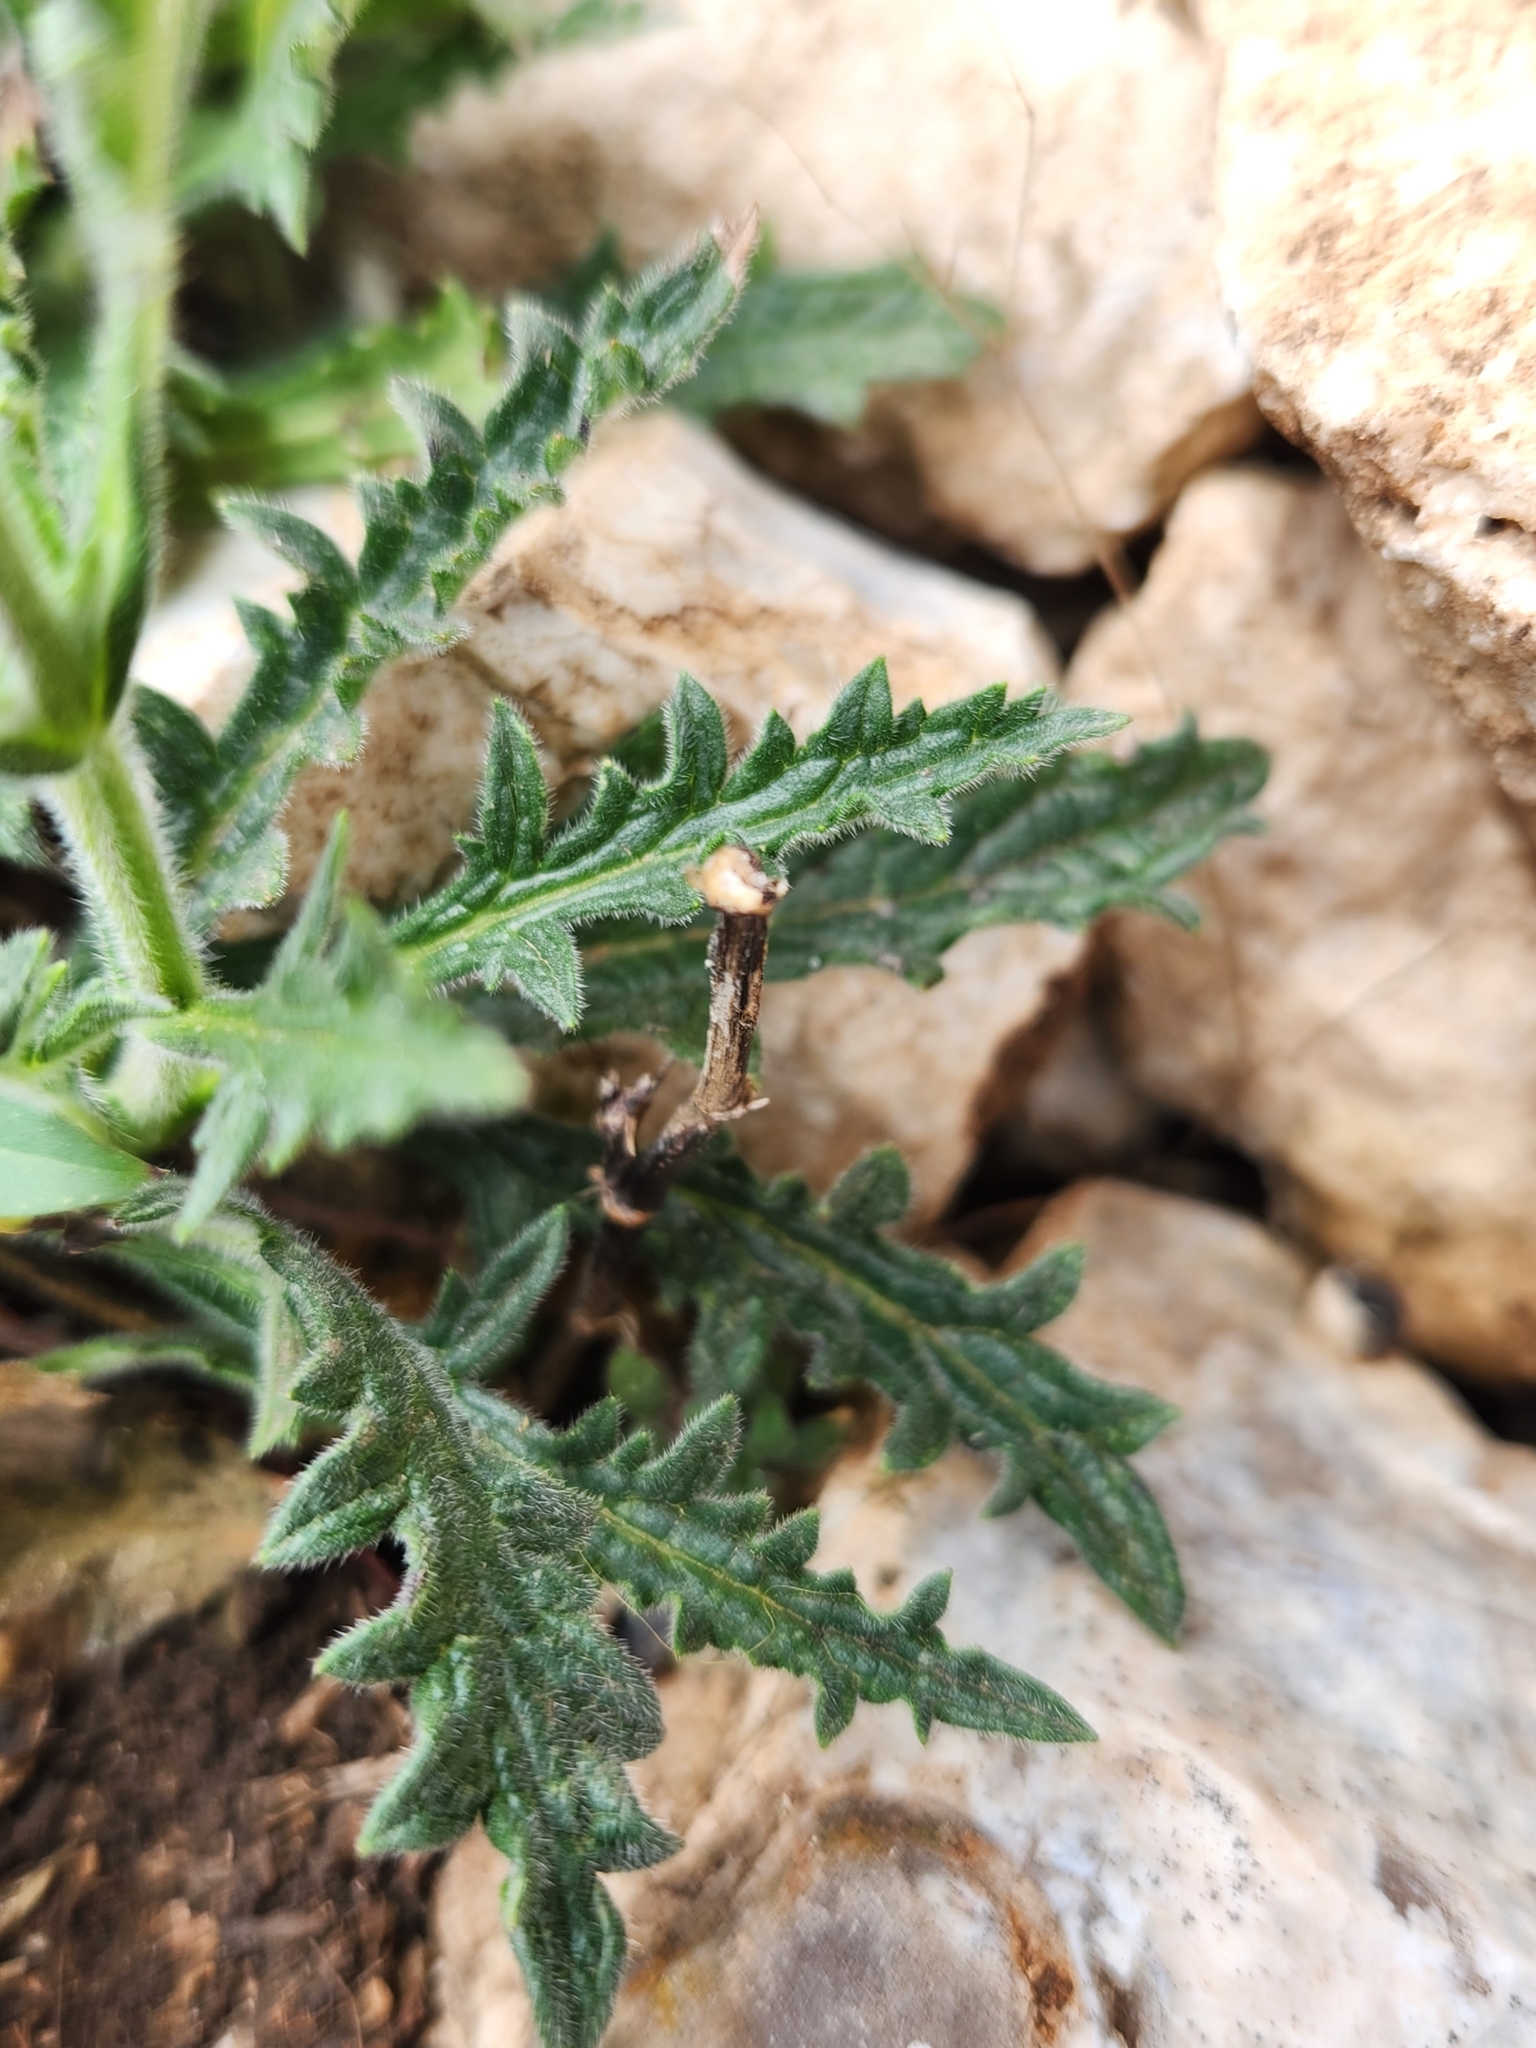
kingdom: Plantae
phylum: Tracheophyta
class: Magnoliopsida
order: Lamiales
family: Verbenaceae
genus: Verbena
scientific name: Verbena canescens
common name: Gray vervain
